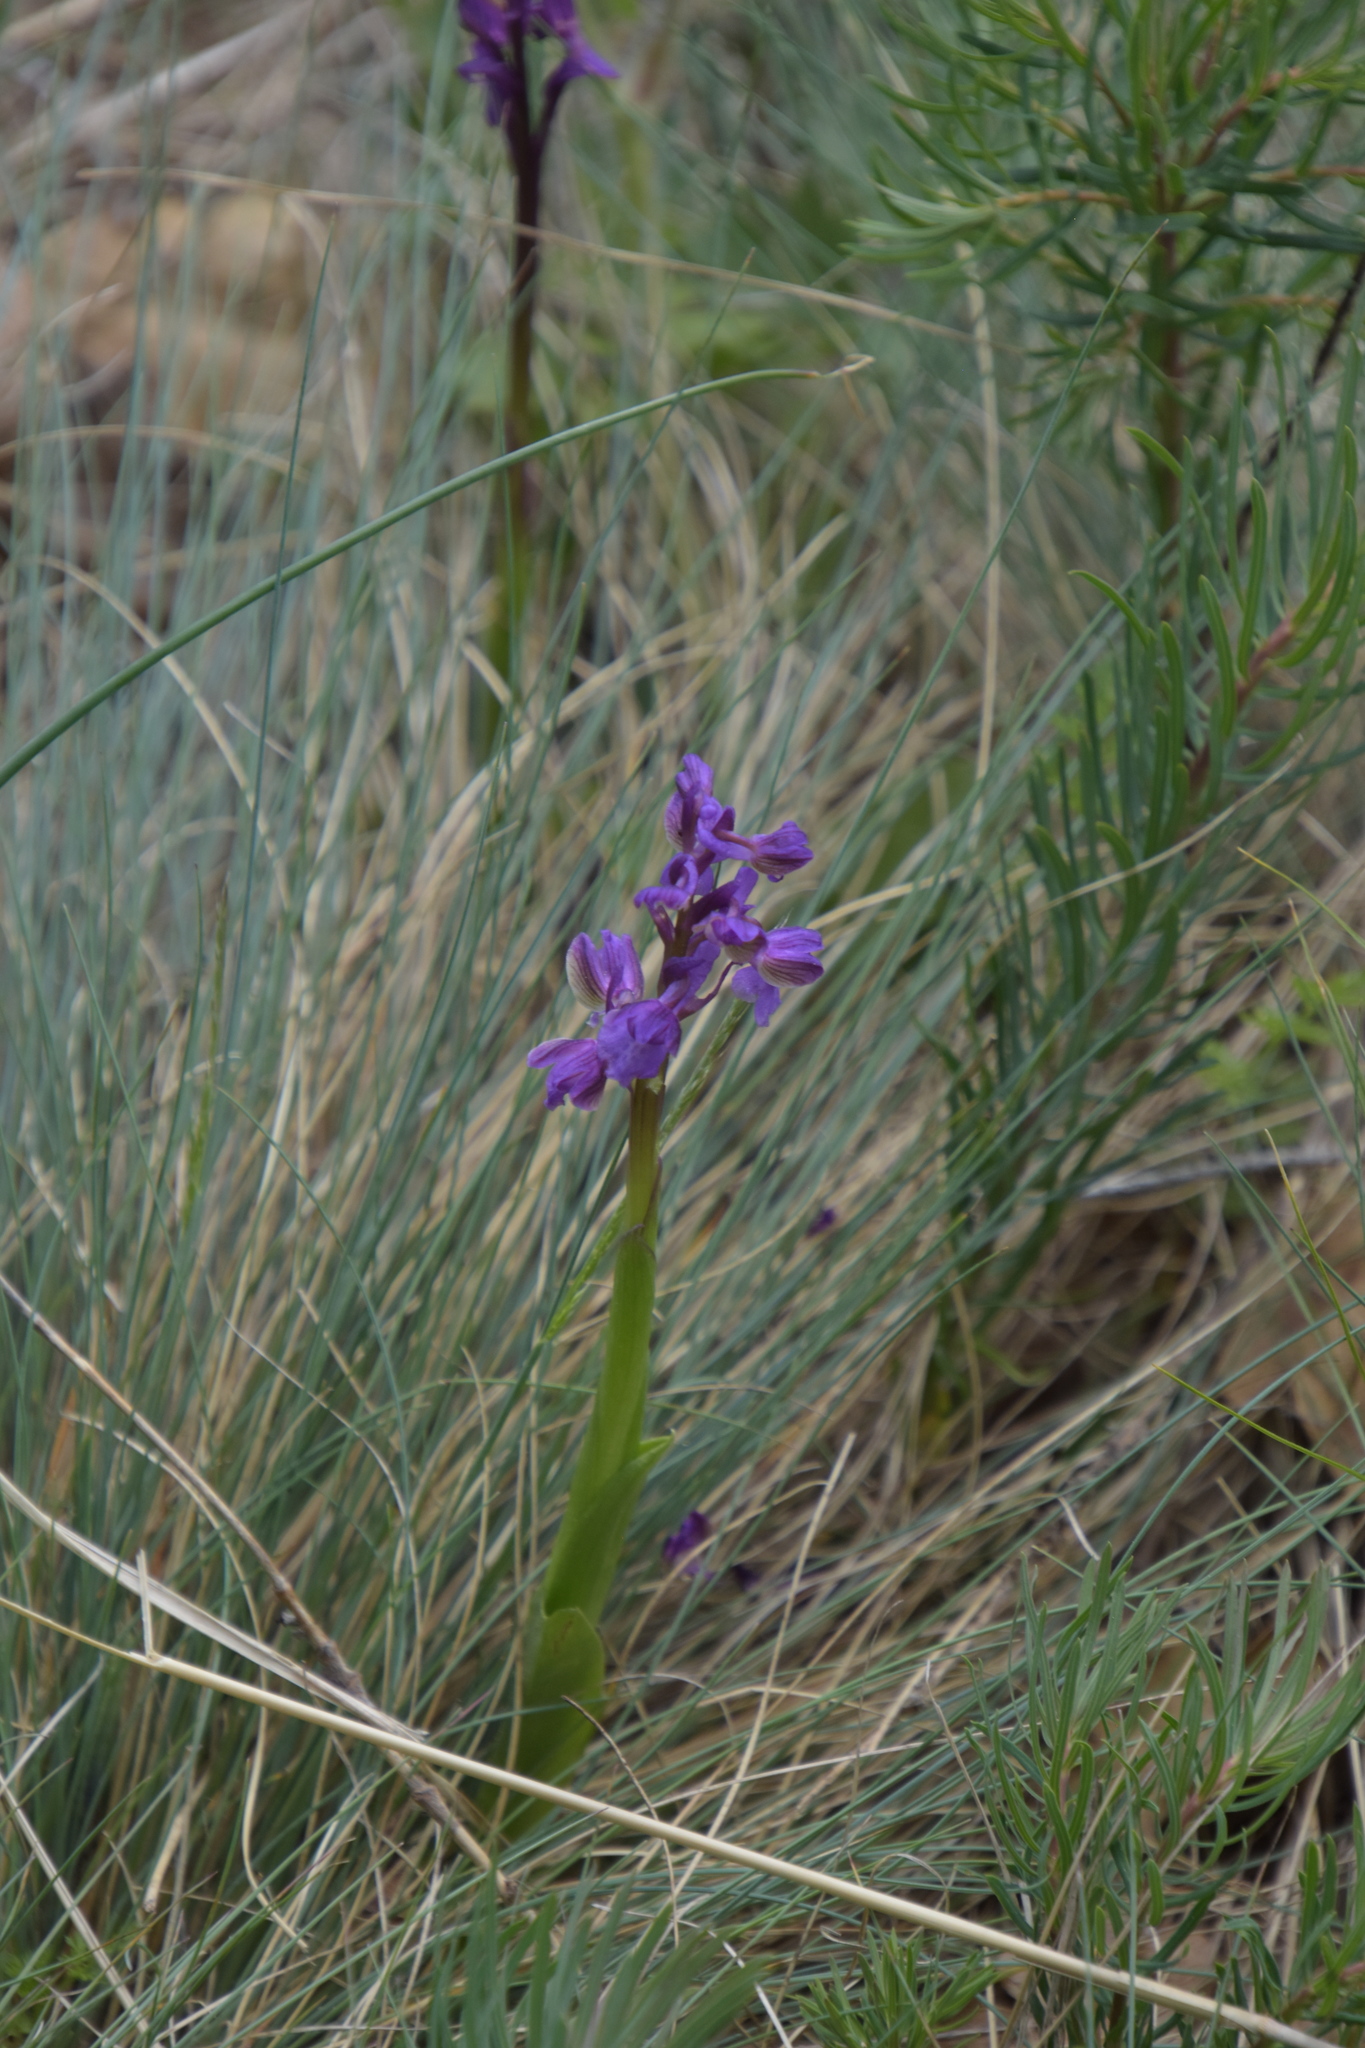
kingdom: Plantae
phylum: Tracheophyta
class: Liliopsida
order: Asparagales
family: Orchidaceae
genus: Anacamptis
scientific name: Anacamptis morio
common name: Green-winged orchid
